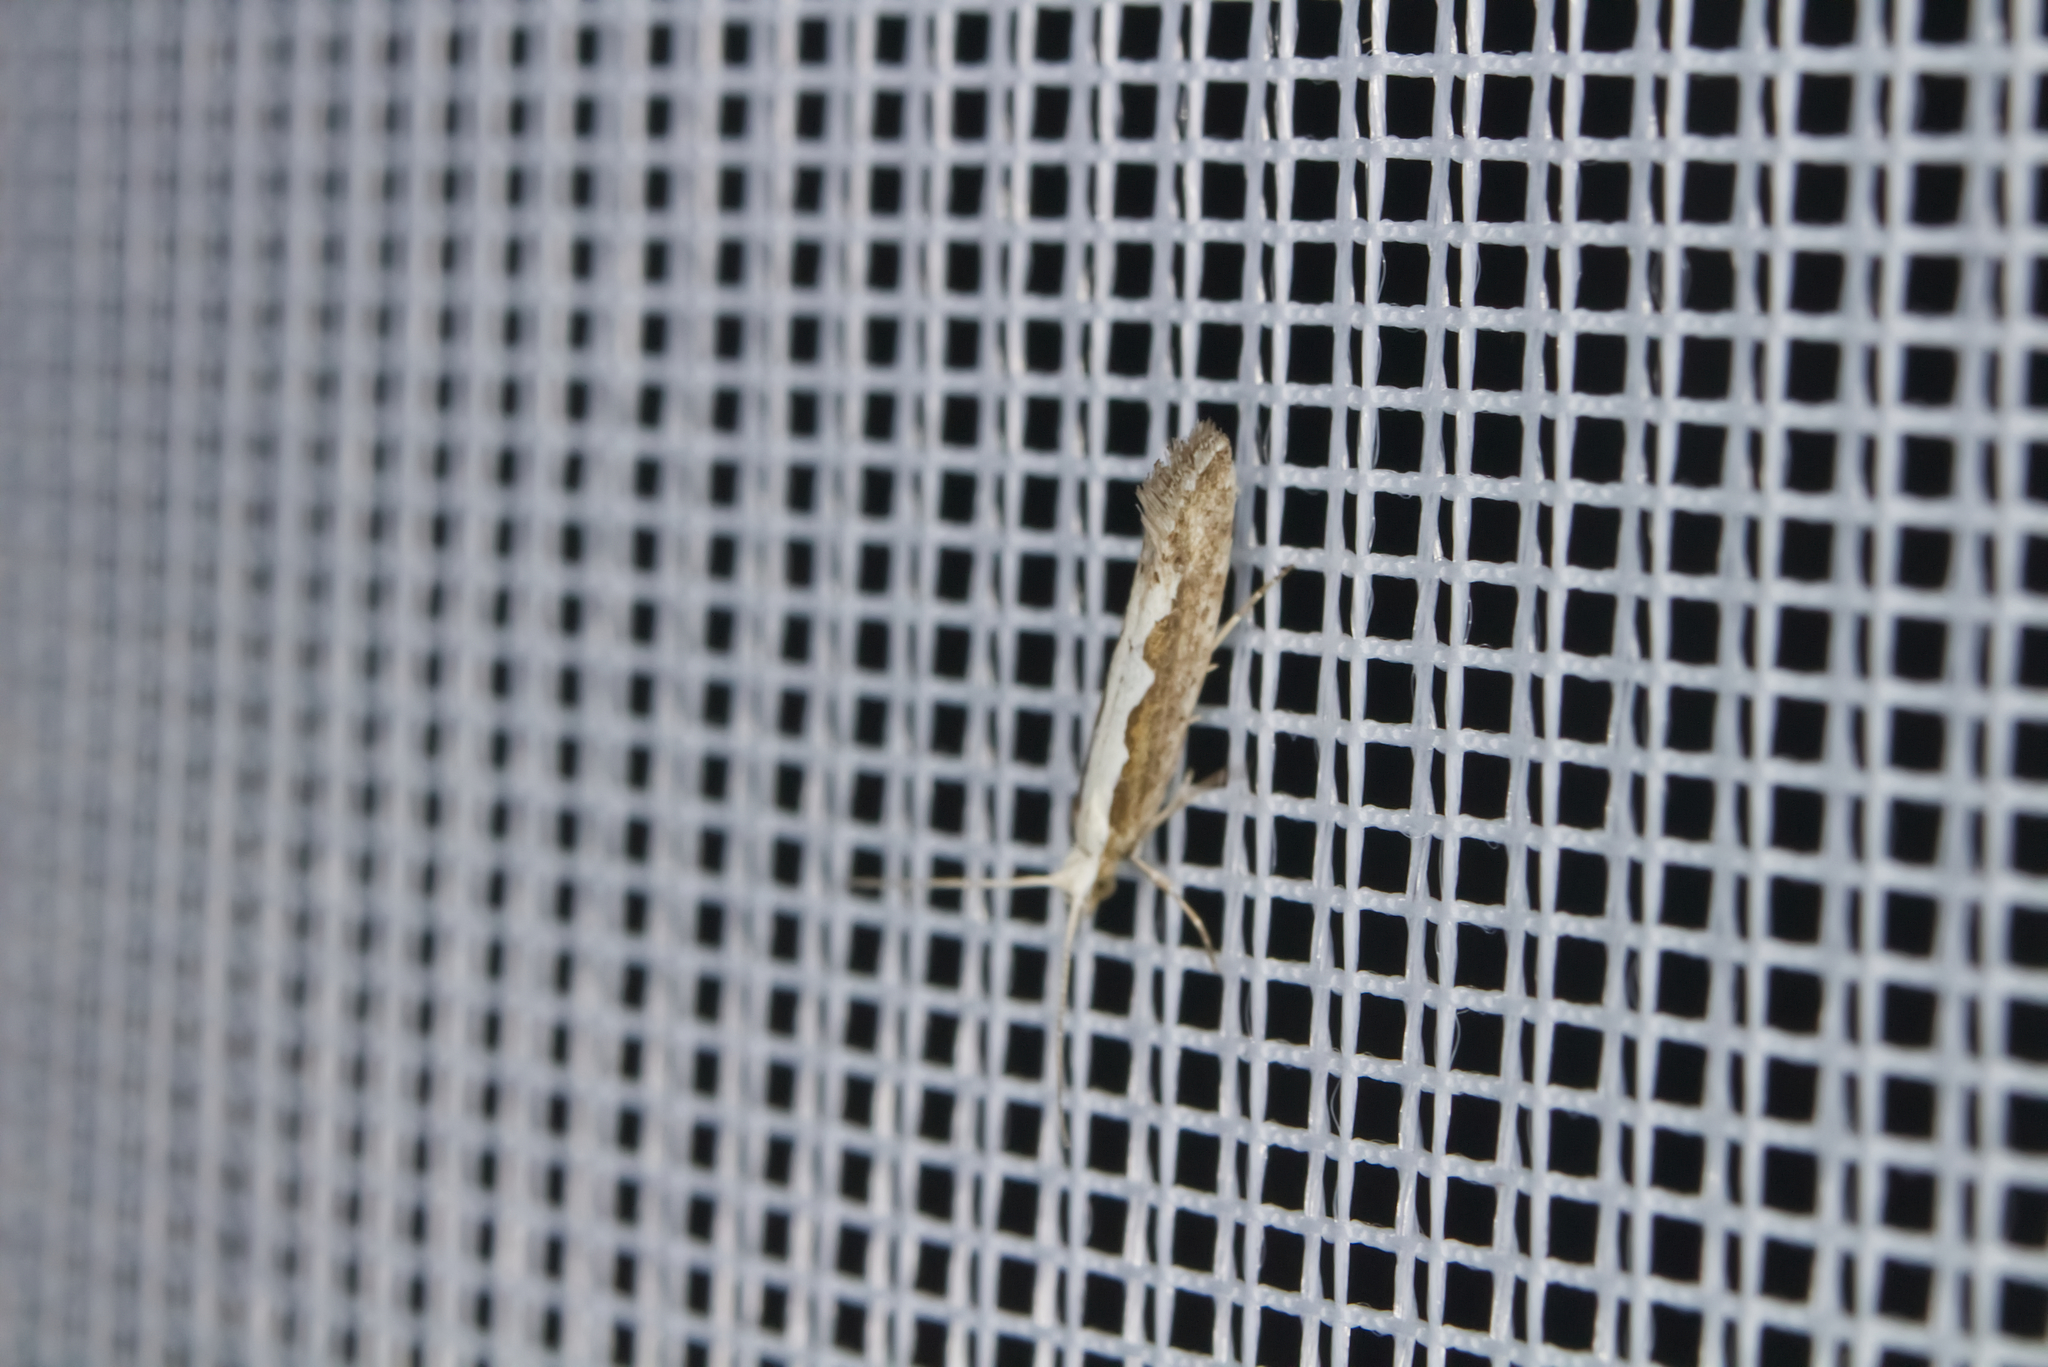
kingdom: Animalia
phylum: Arthropoda
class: Insecta
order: Lepidoptera
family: Plutellidae
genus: Plutella
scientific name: Plutella xylostella
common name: Diamond-back moth
